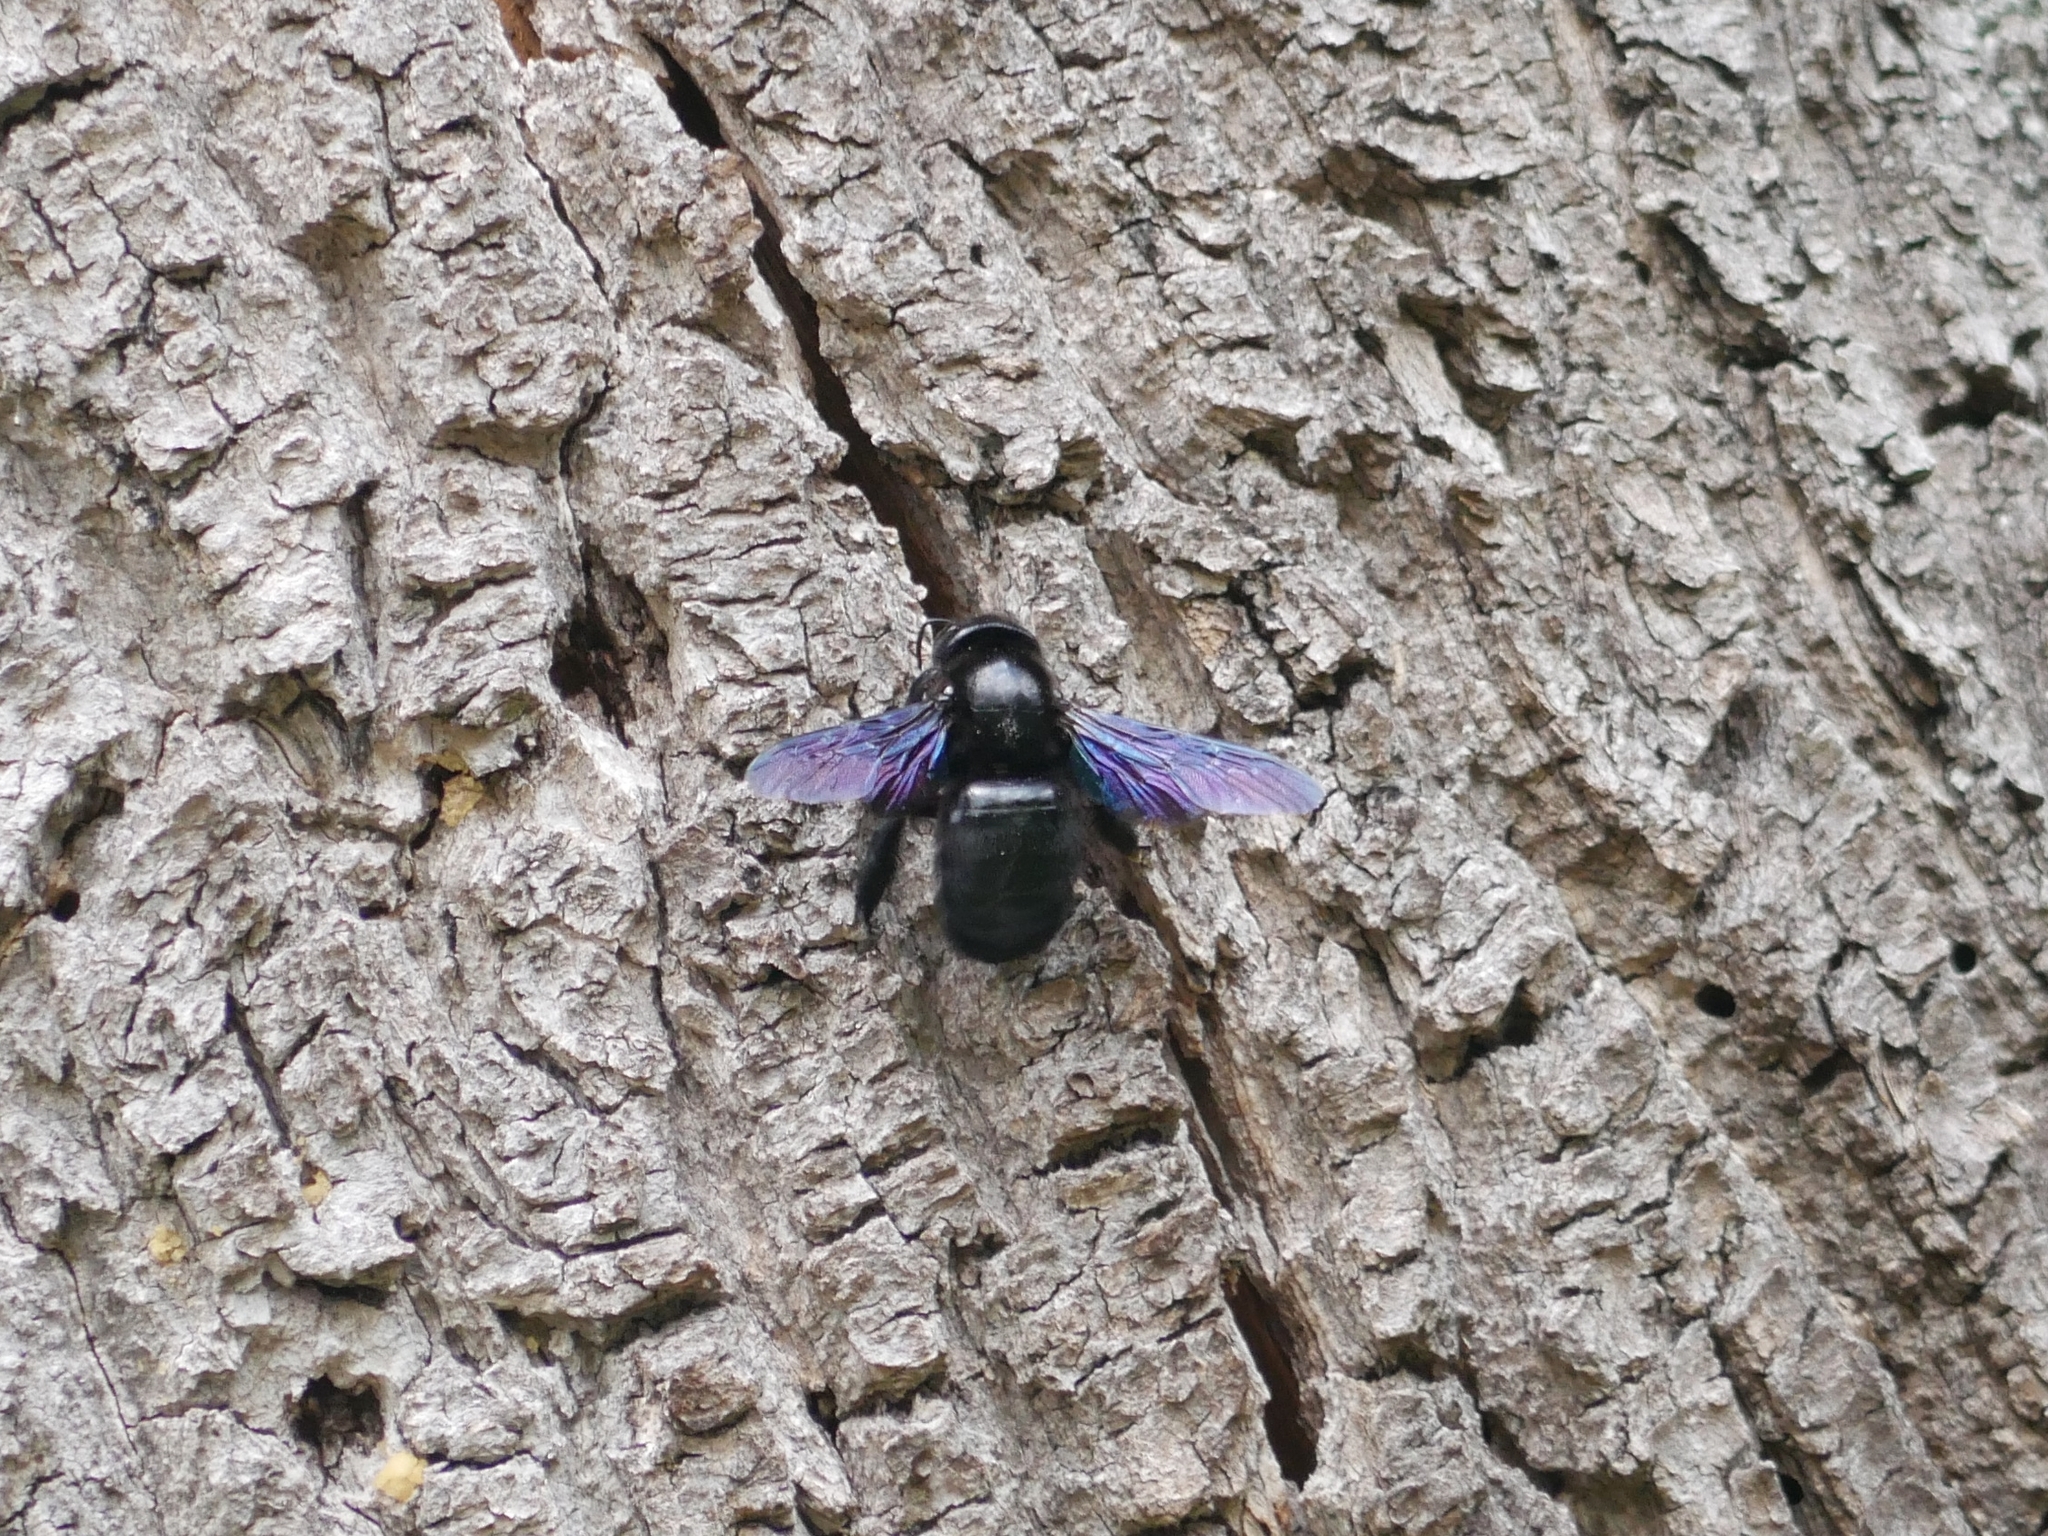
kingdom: Animalia
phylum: Arthropoda
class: Insecta
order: Hymenoptera
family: Apidae
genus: Xylocopa
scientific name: Xylocopa violacea
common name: Violet carpenter bee
